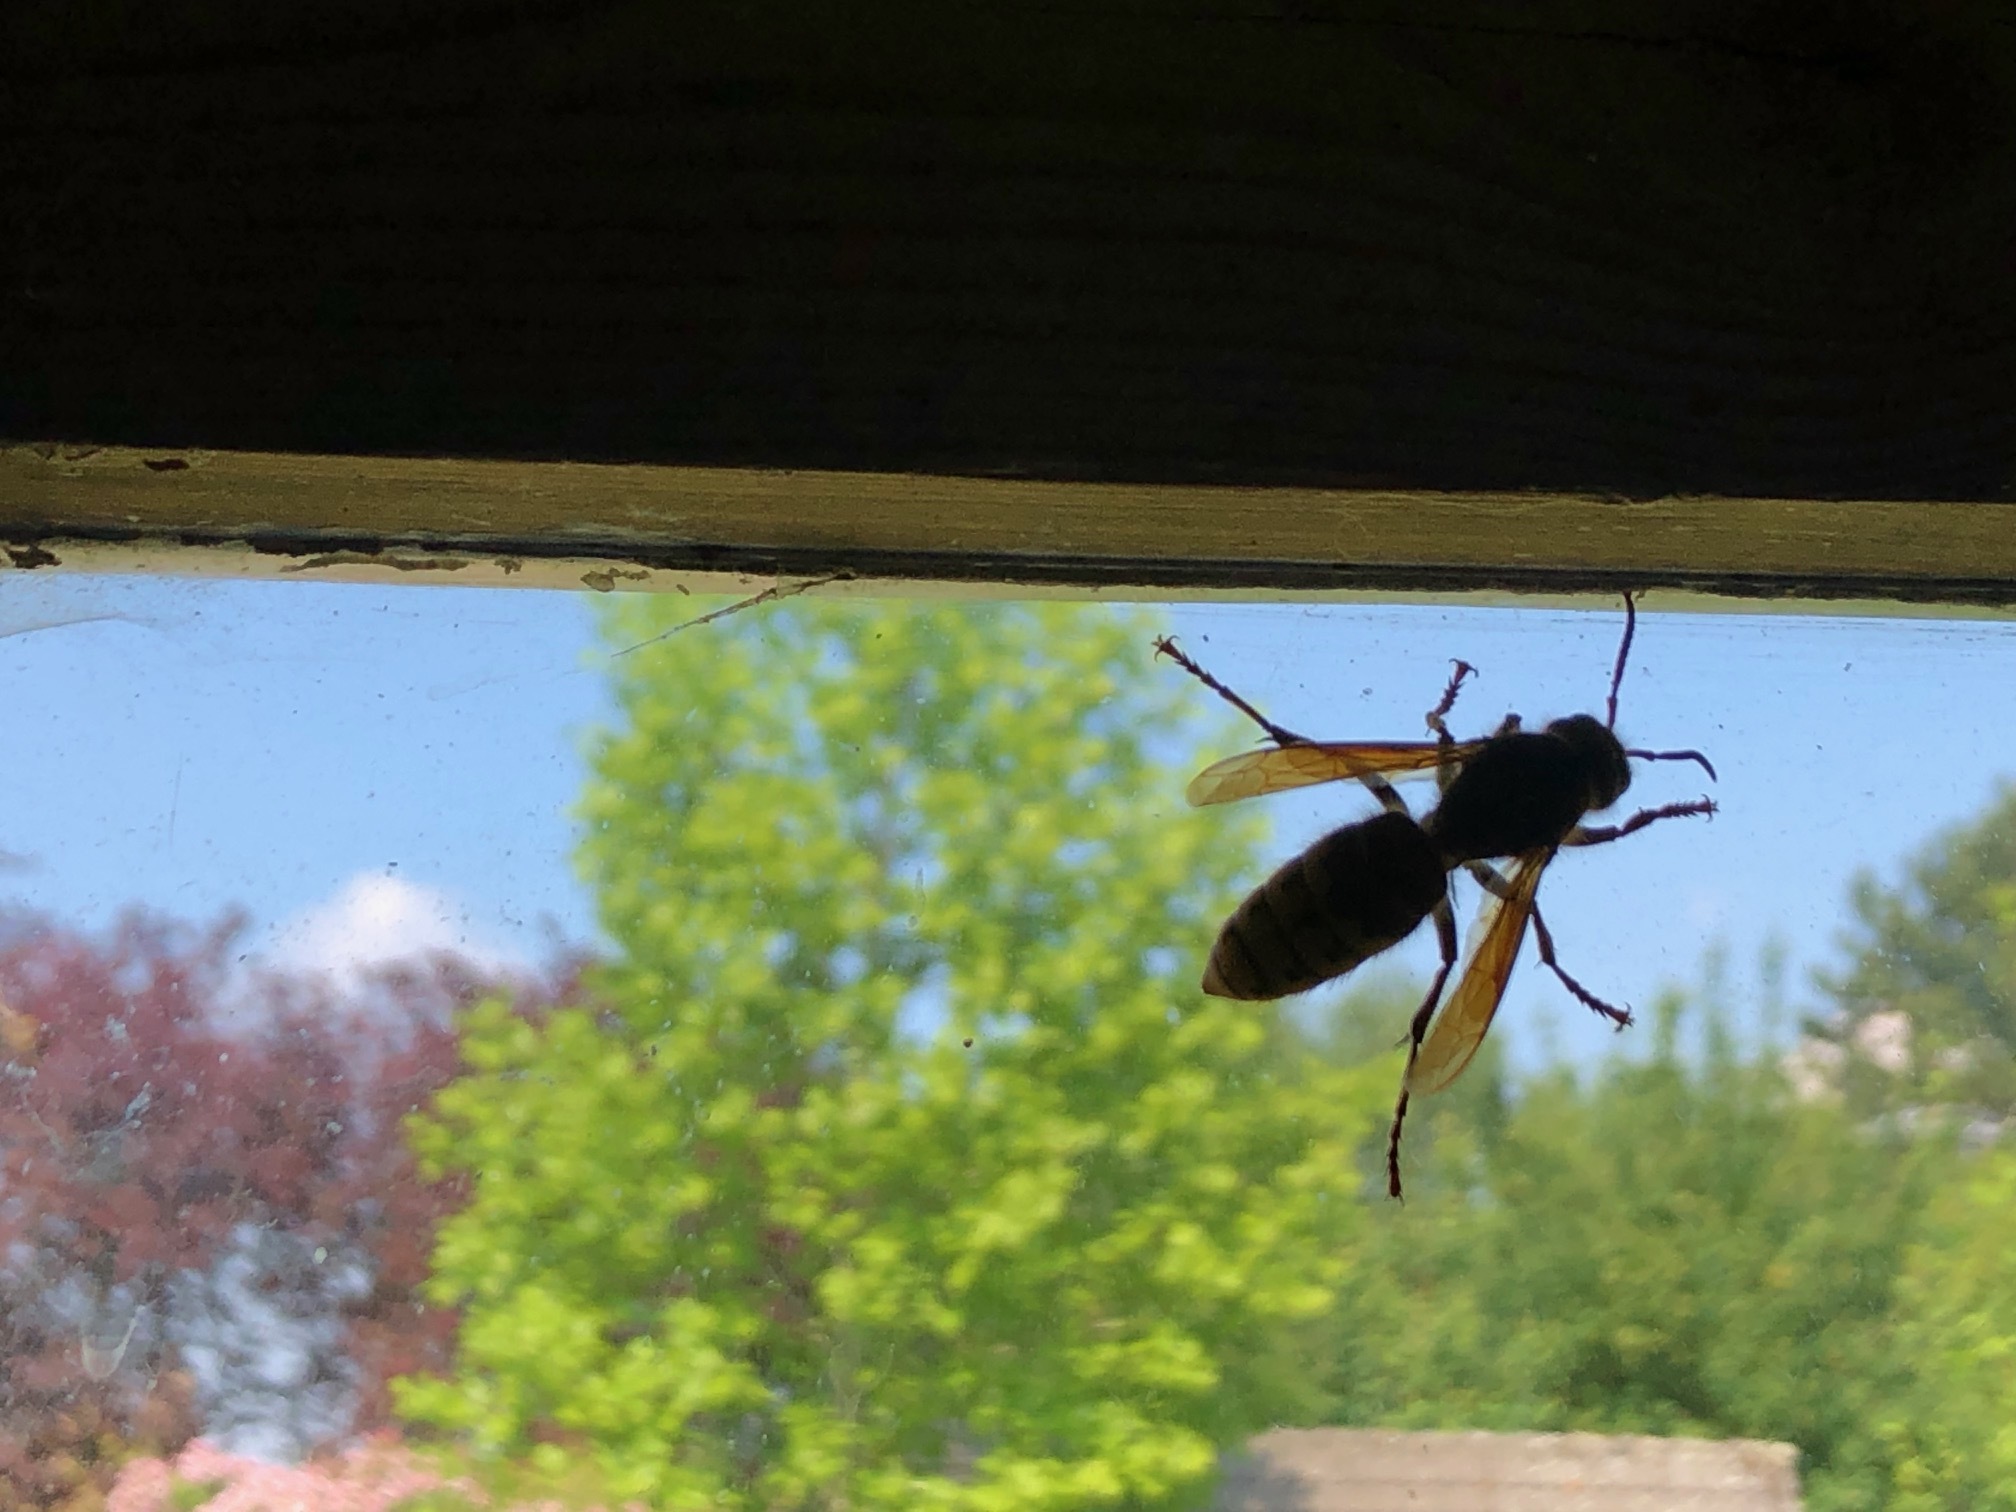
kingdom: Animalia
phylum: Arthropoda
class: Insecta
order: Hymenoptera
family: Vespidae
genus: Vespa
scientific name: Vespa crabro
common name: Hornet
